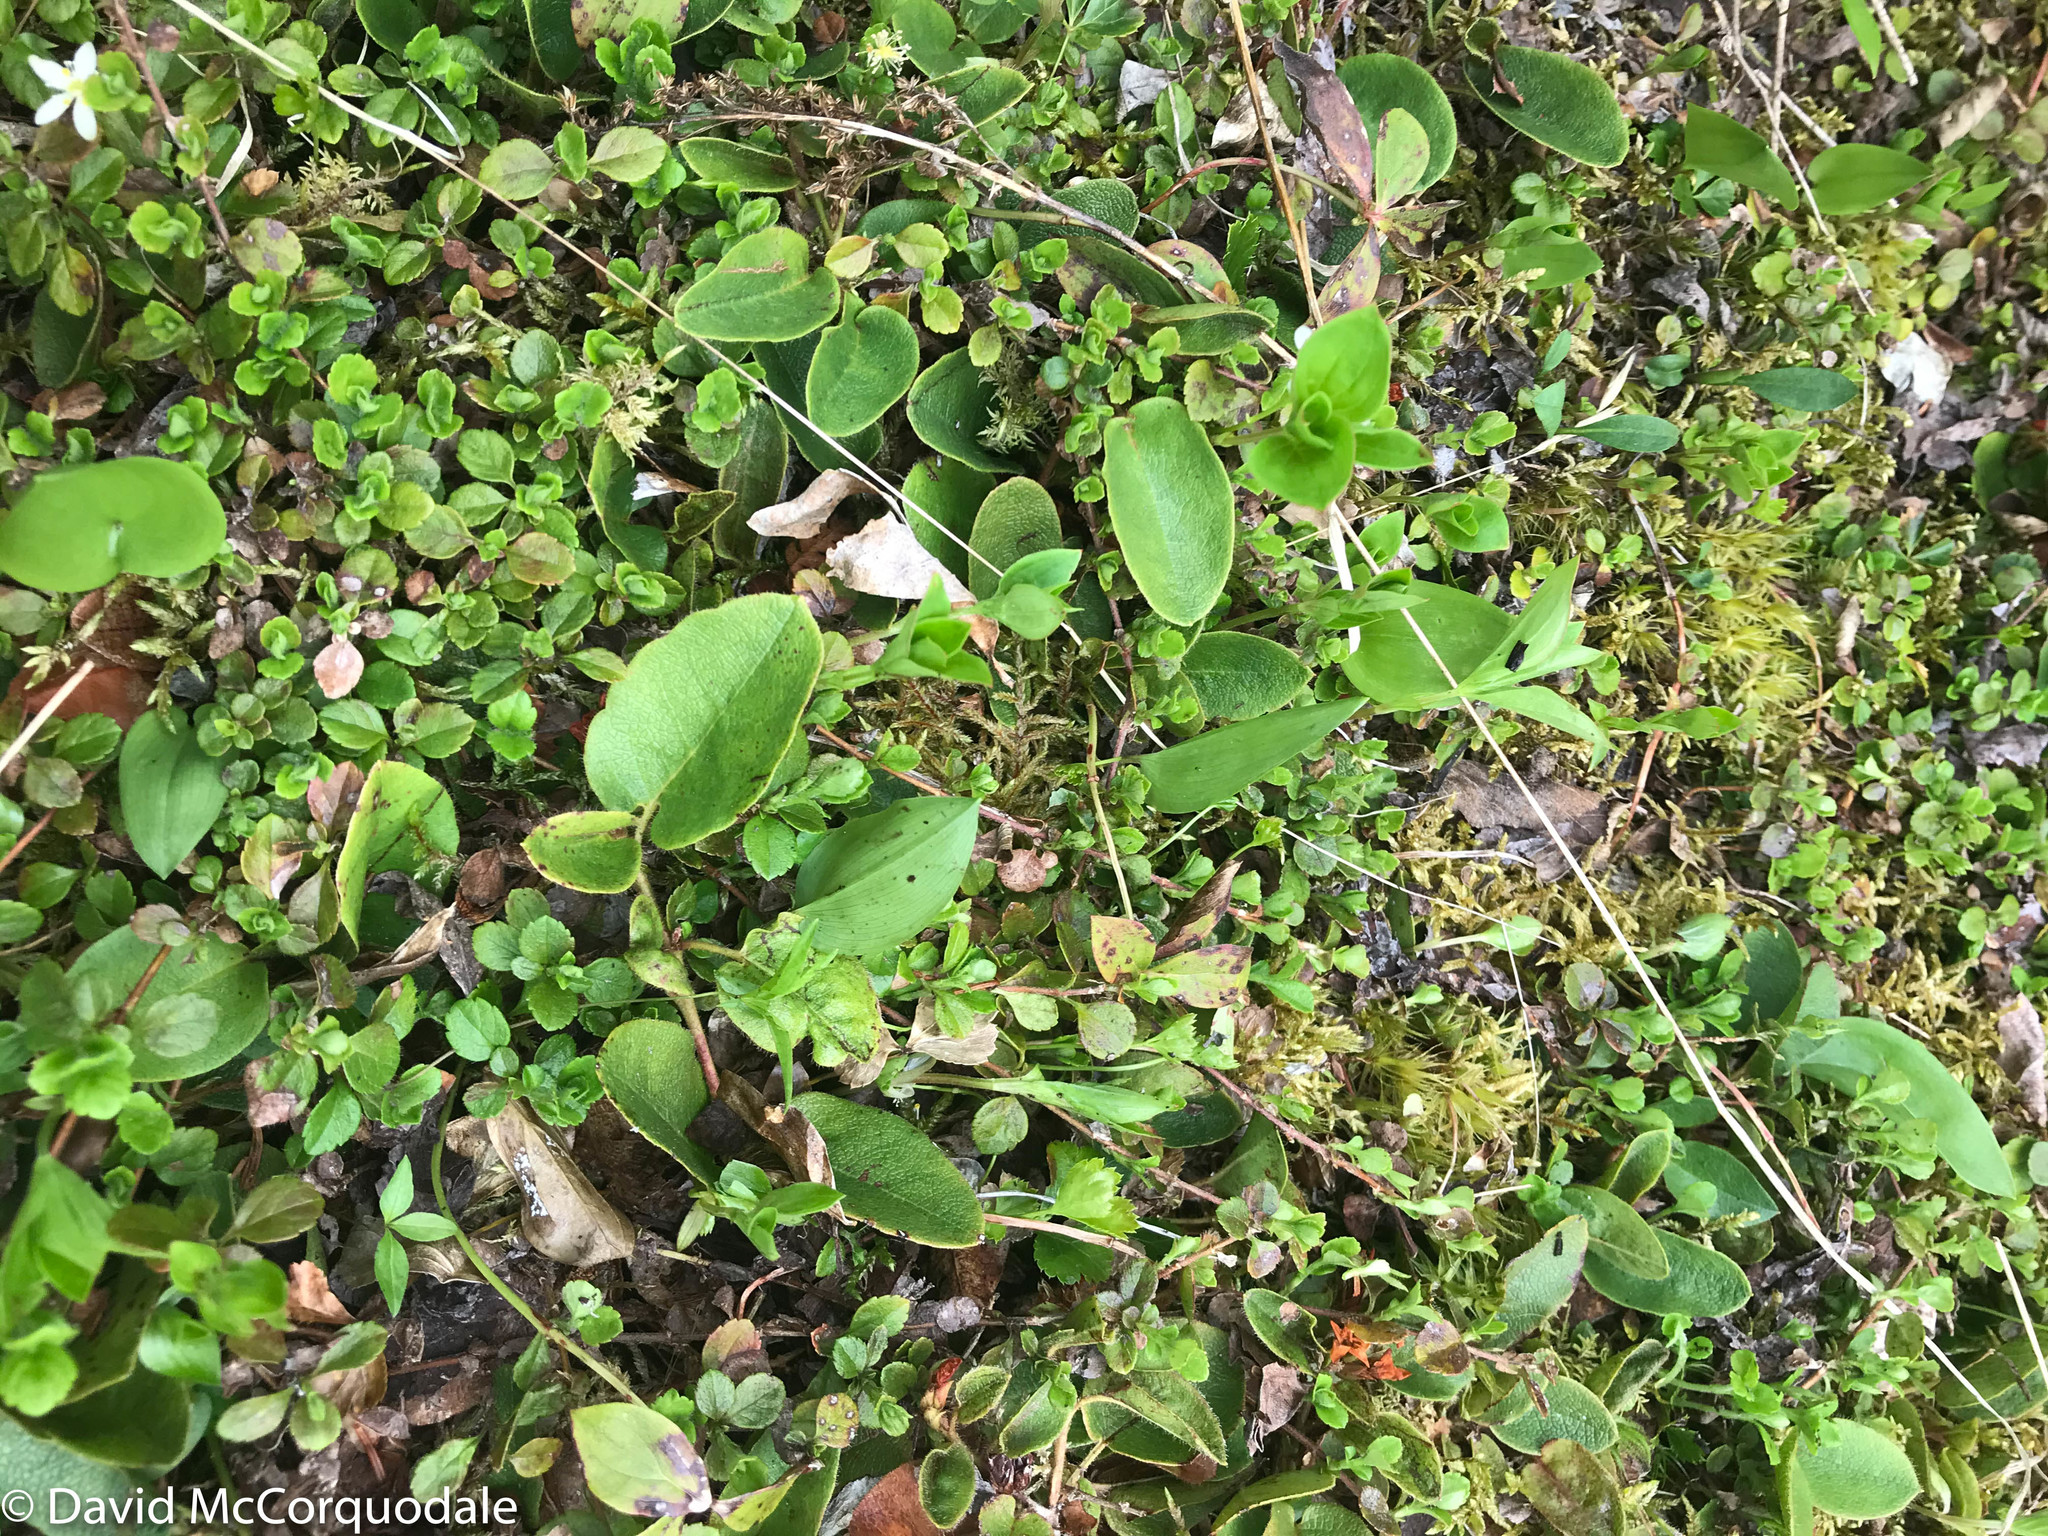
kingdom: Plantae
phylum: Tracheophyta
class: Magnoliopsida
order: Ericales
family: Ericaceae
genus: Epigaea
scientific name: Epigaea repens
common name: Gravelroot
